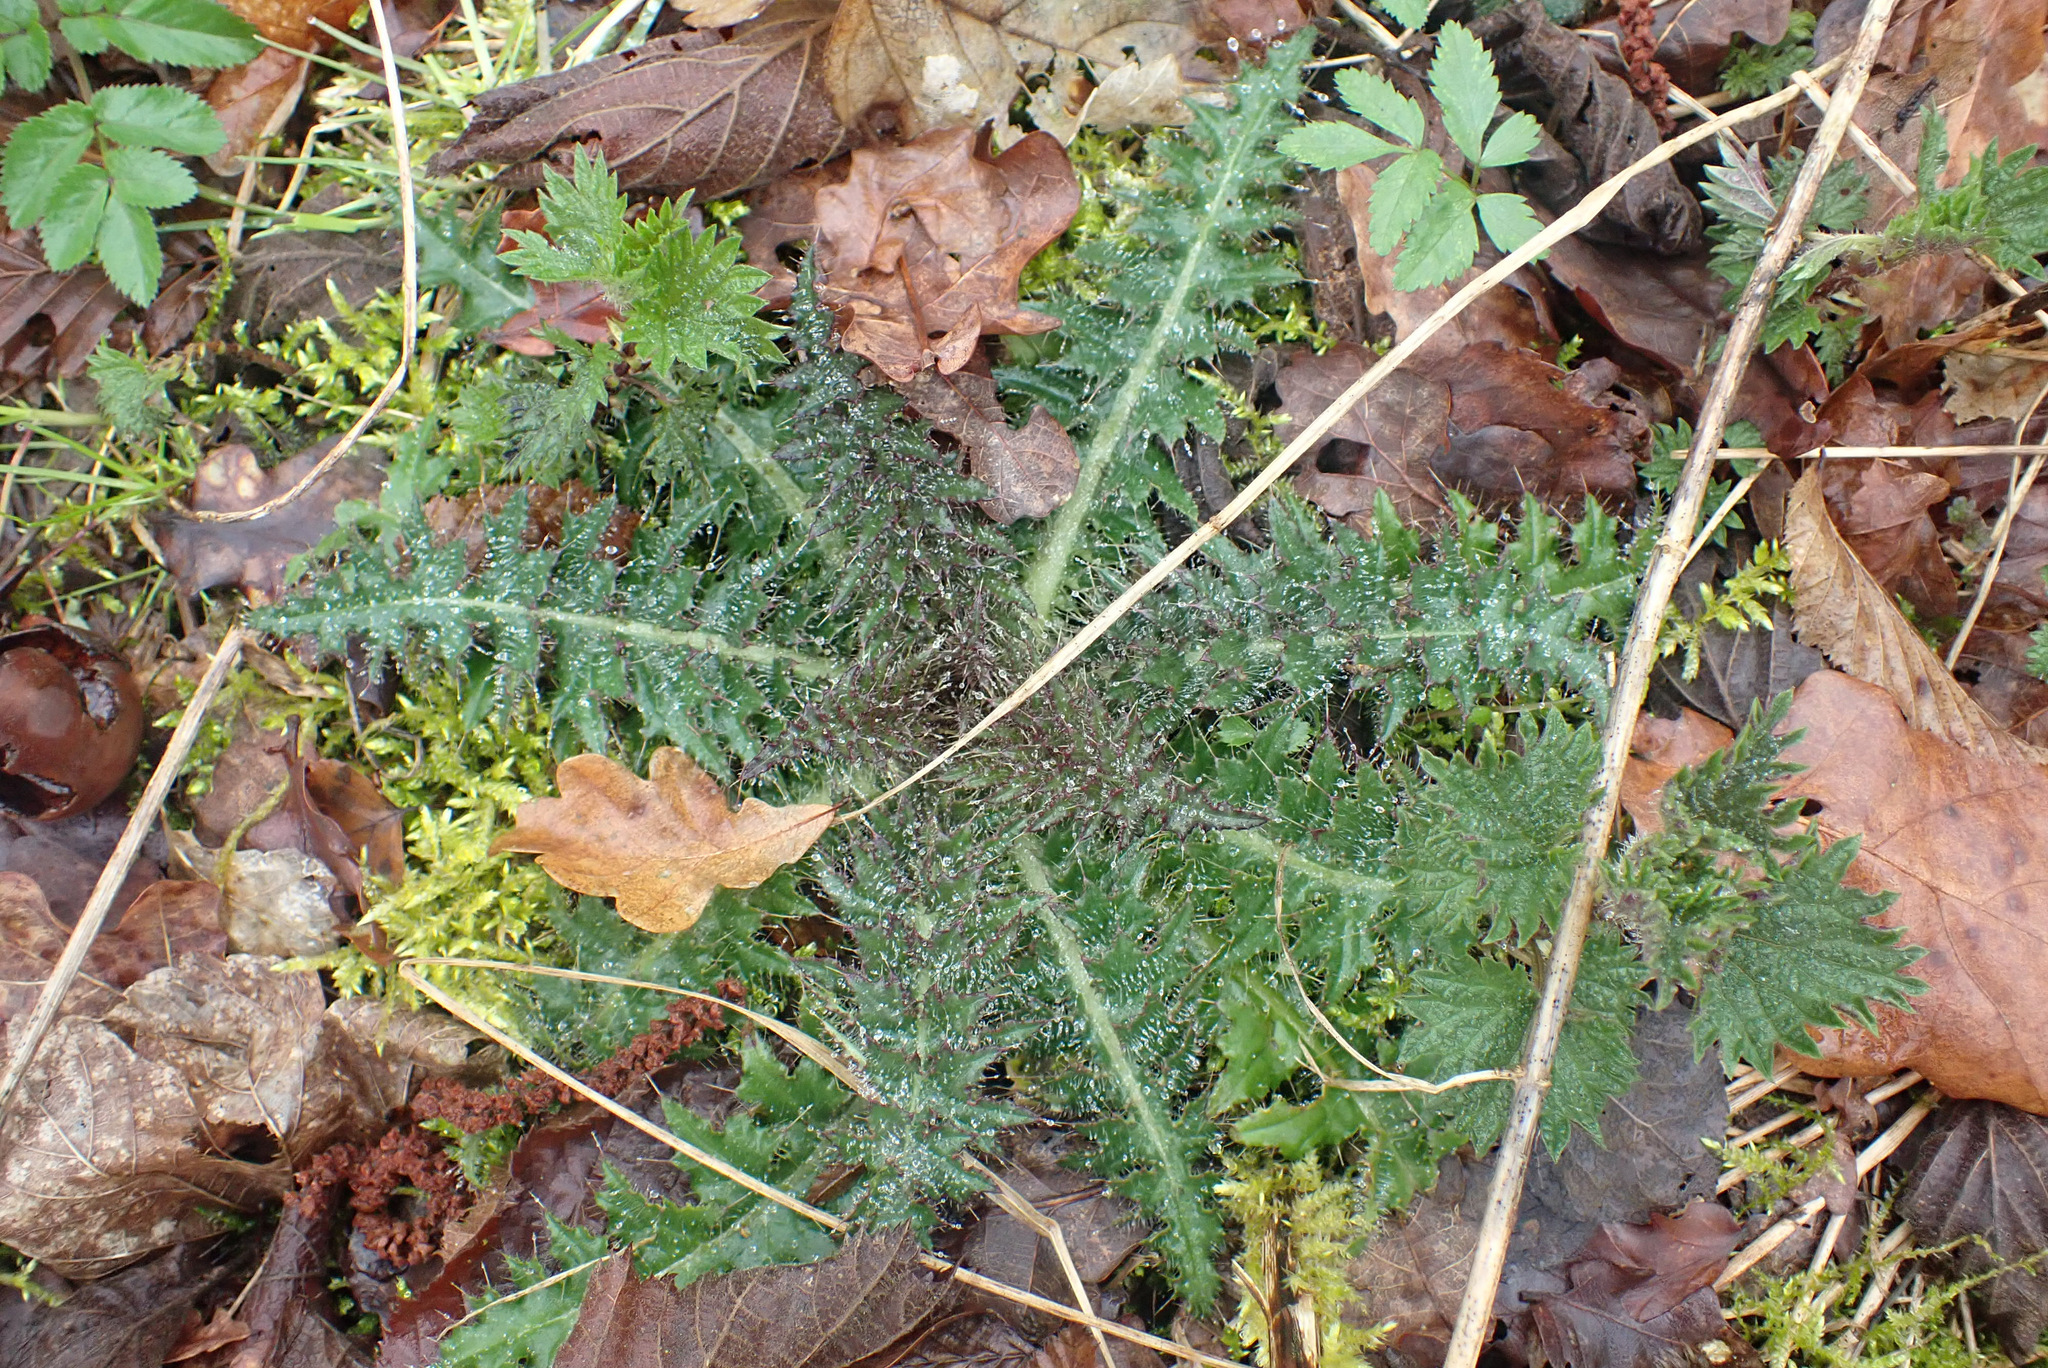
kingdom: Plantae
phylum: Tracheophyta
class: Magnoliopsida
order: Asterales
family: Asteraceae
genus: Cirsium
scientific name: Cirsium palustre
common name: Marsh thistle
